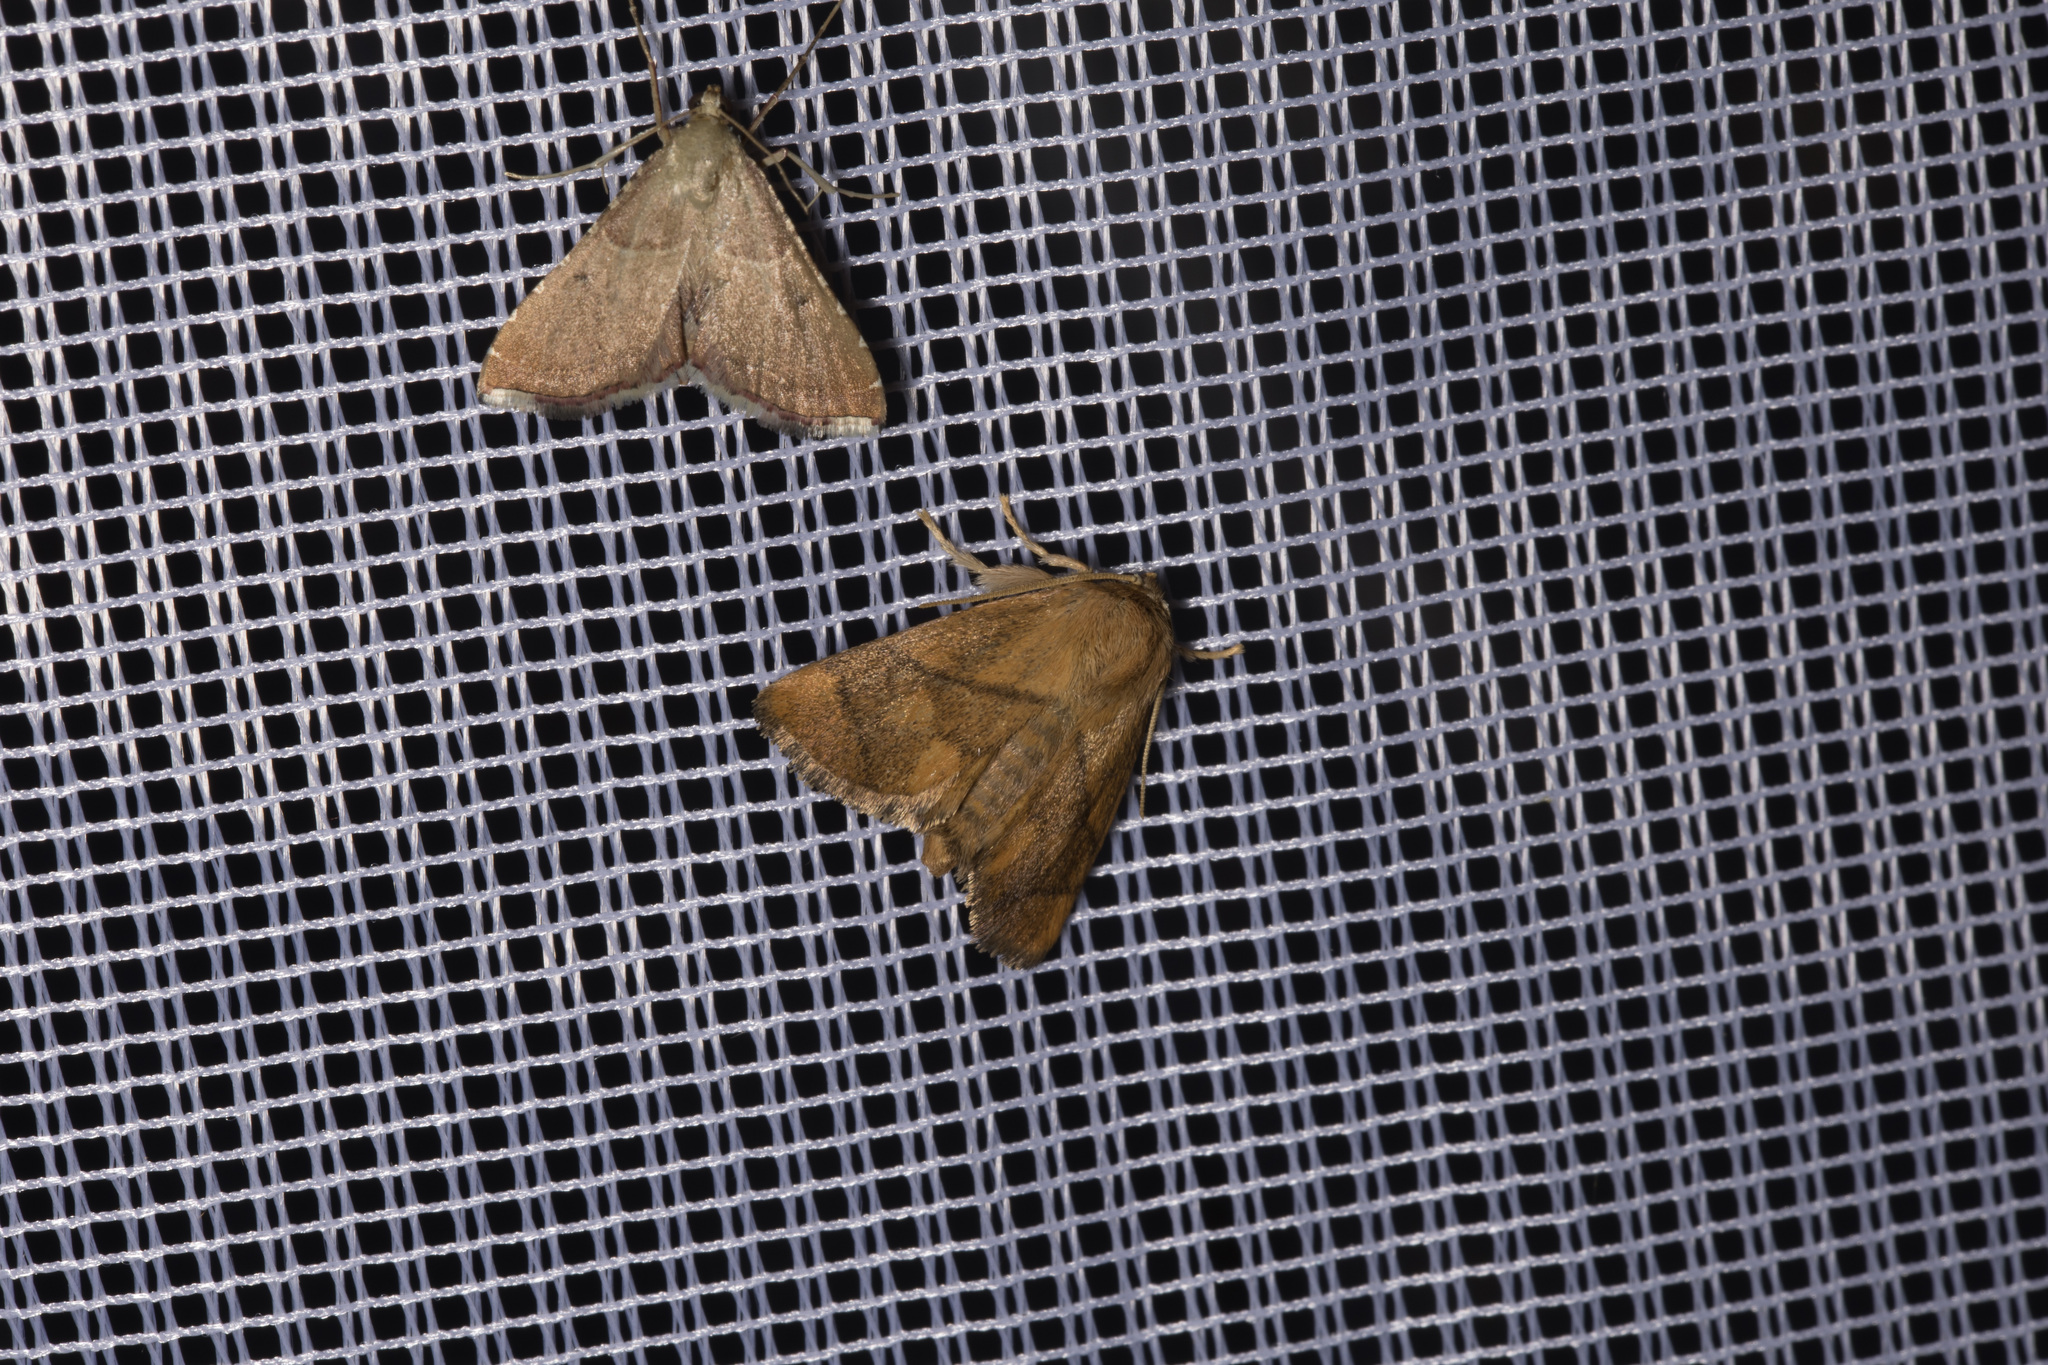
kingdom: Animalia
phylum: Arthropoda
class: Insecta
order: Lepidoptera
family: Limacodidae
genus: Apoda
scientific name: Apoda limacodes
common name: Festoon
